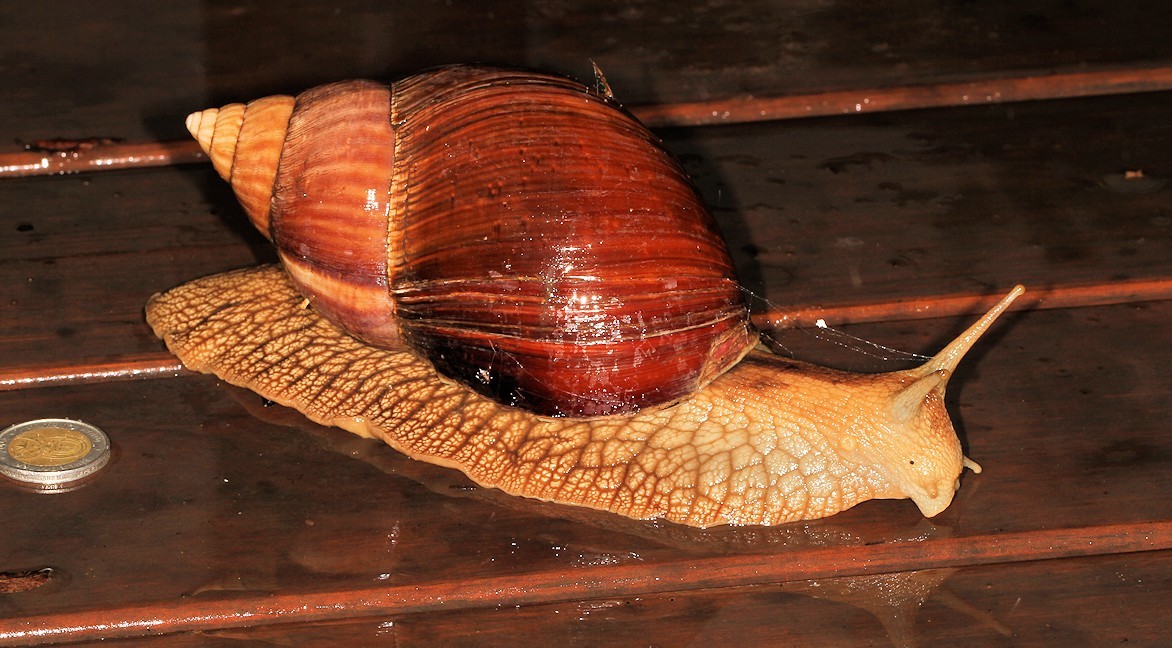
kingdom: Animalia
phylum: Mollusca
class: Gastropoda
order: Stylommatophora
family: Achatinidae
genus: Lissachatina
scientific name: Lissachatina immaculata
